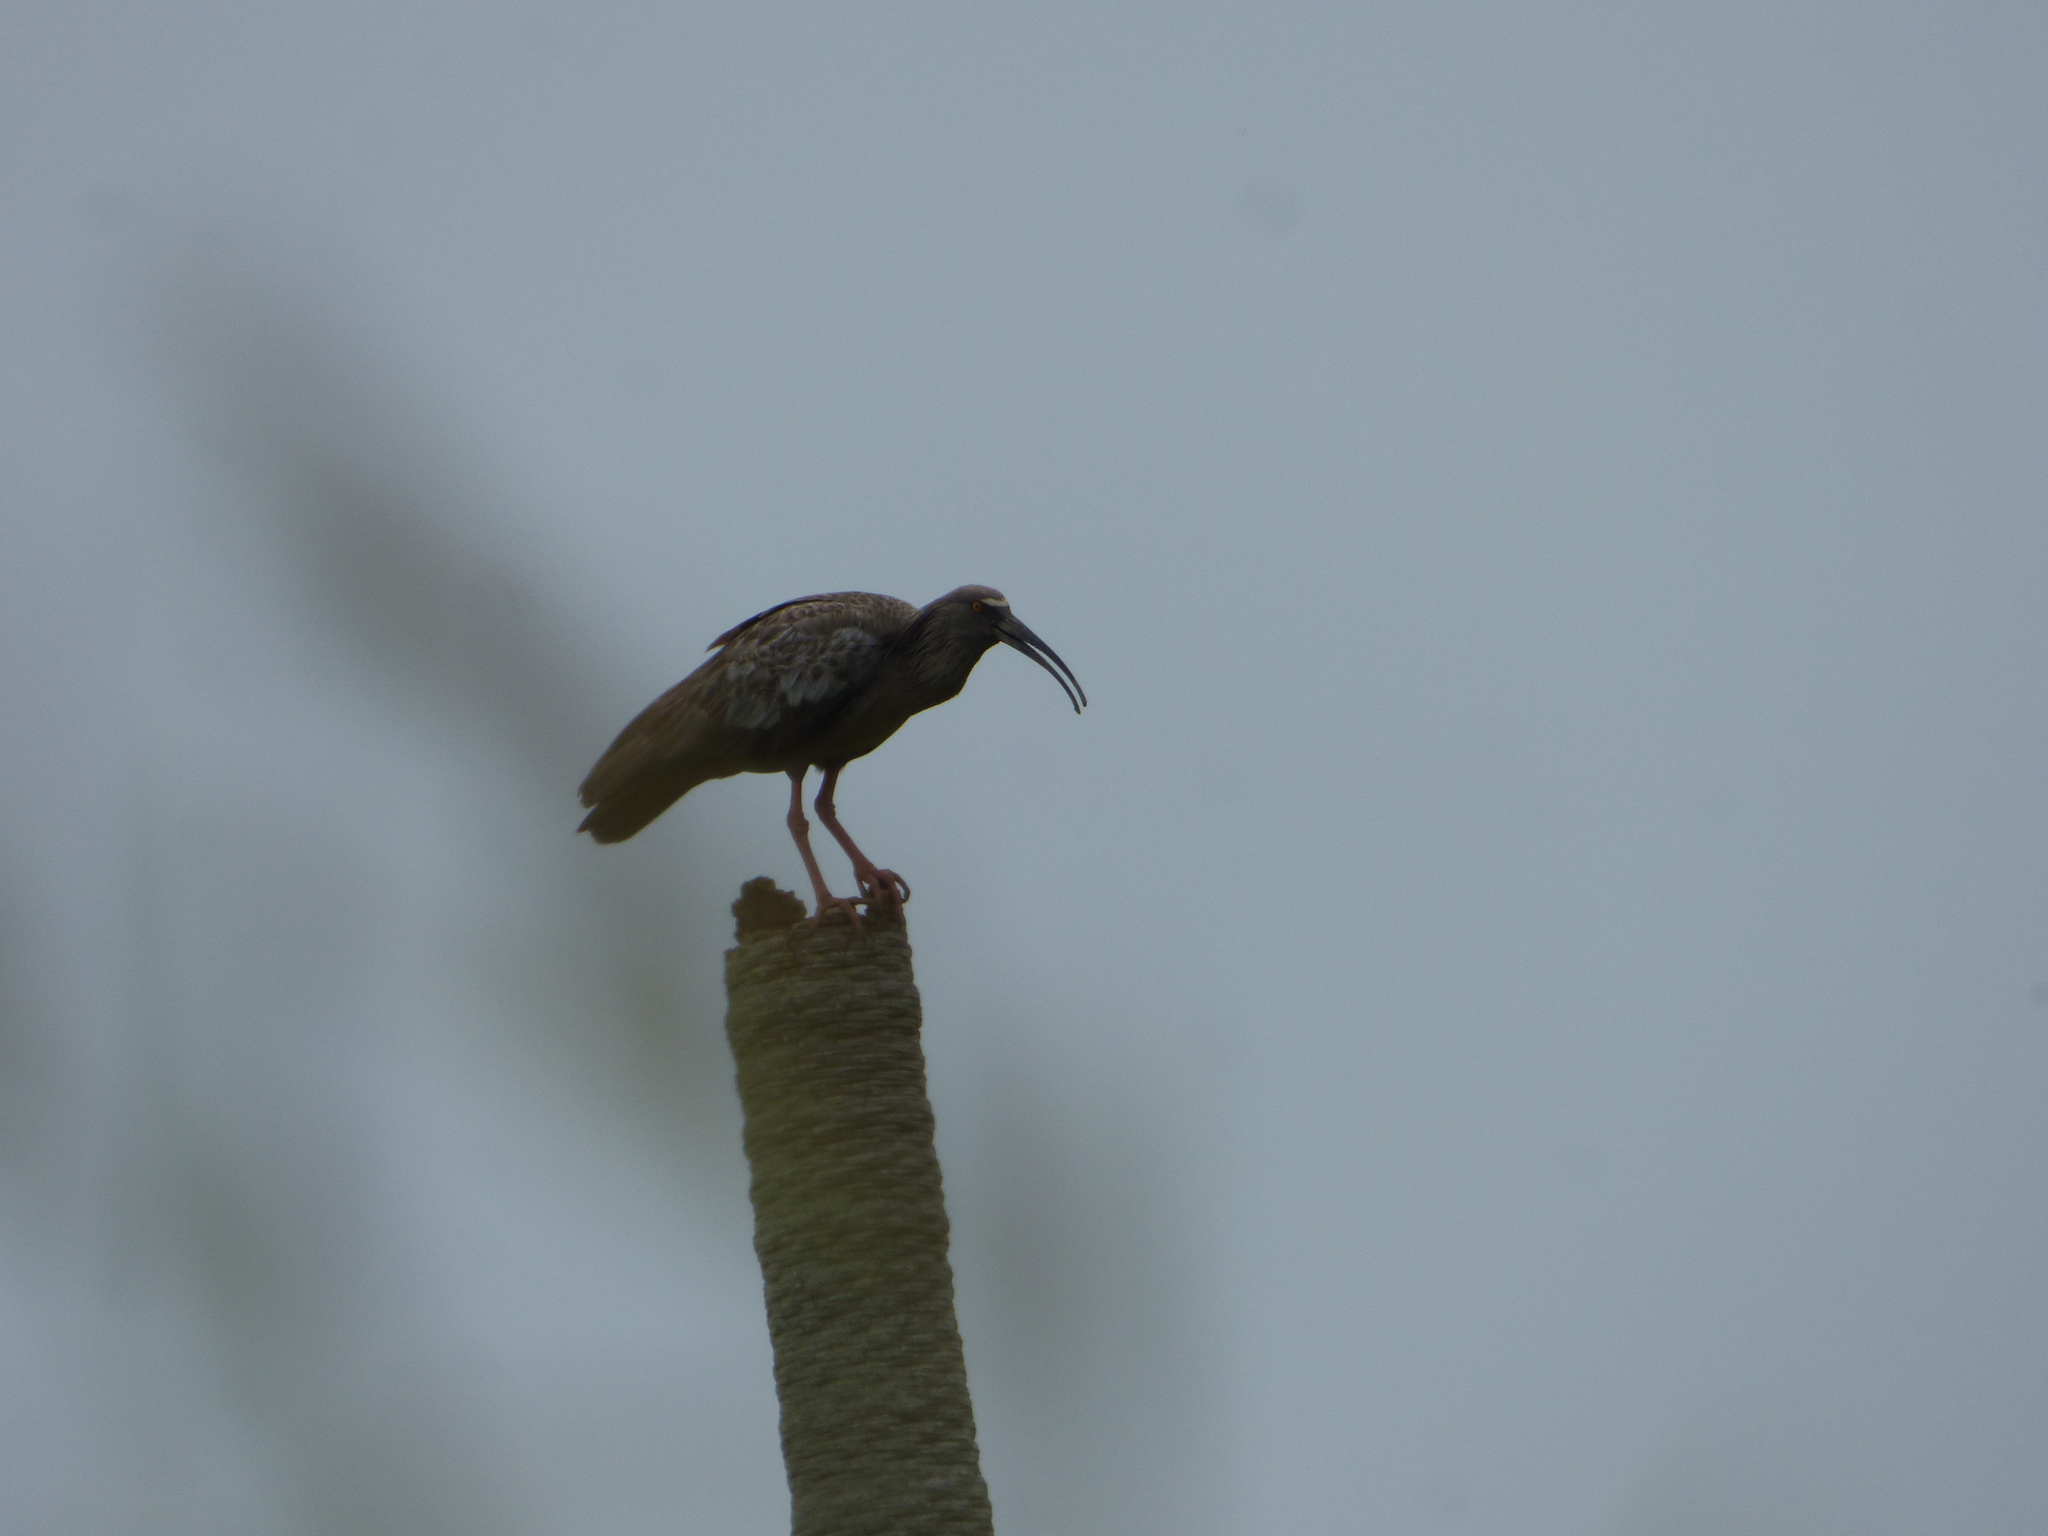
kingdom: Animalia
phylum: Chordata
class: Aves
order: Pelecaniformes
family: Threskiornithidae
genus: Theristicus
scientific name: Theristicus caerulescens
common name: Plumbeous ibis
